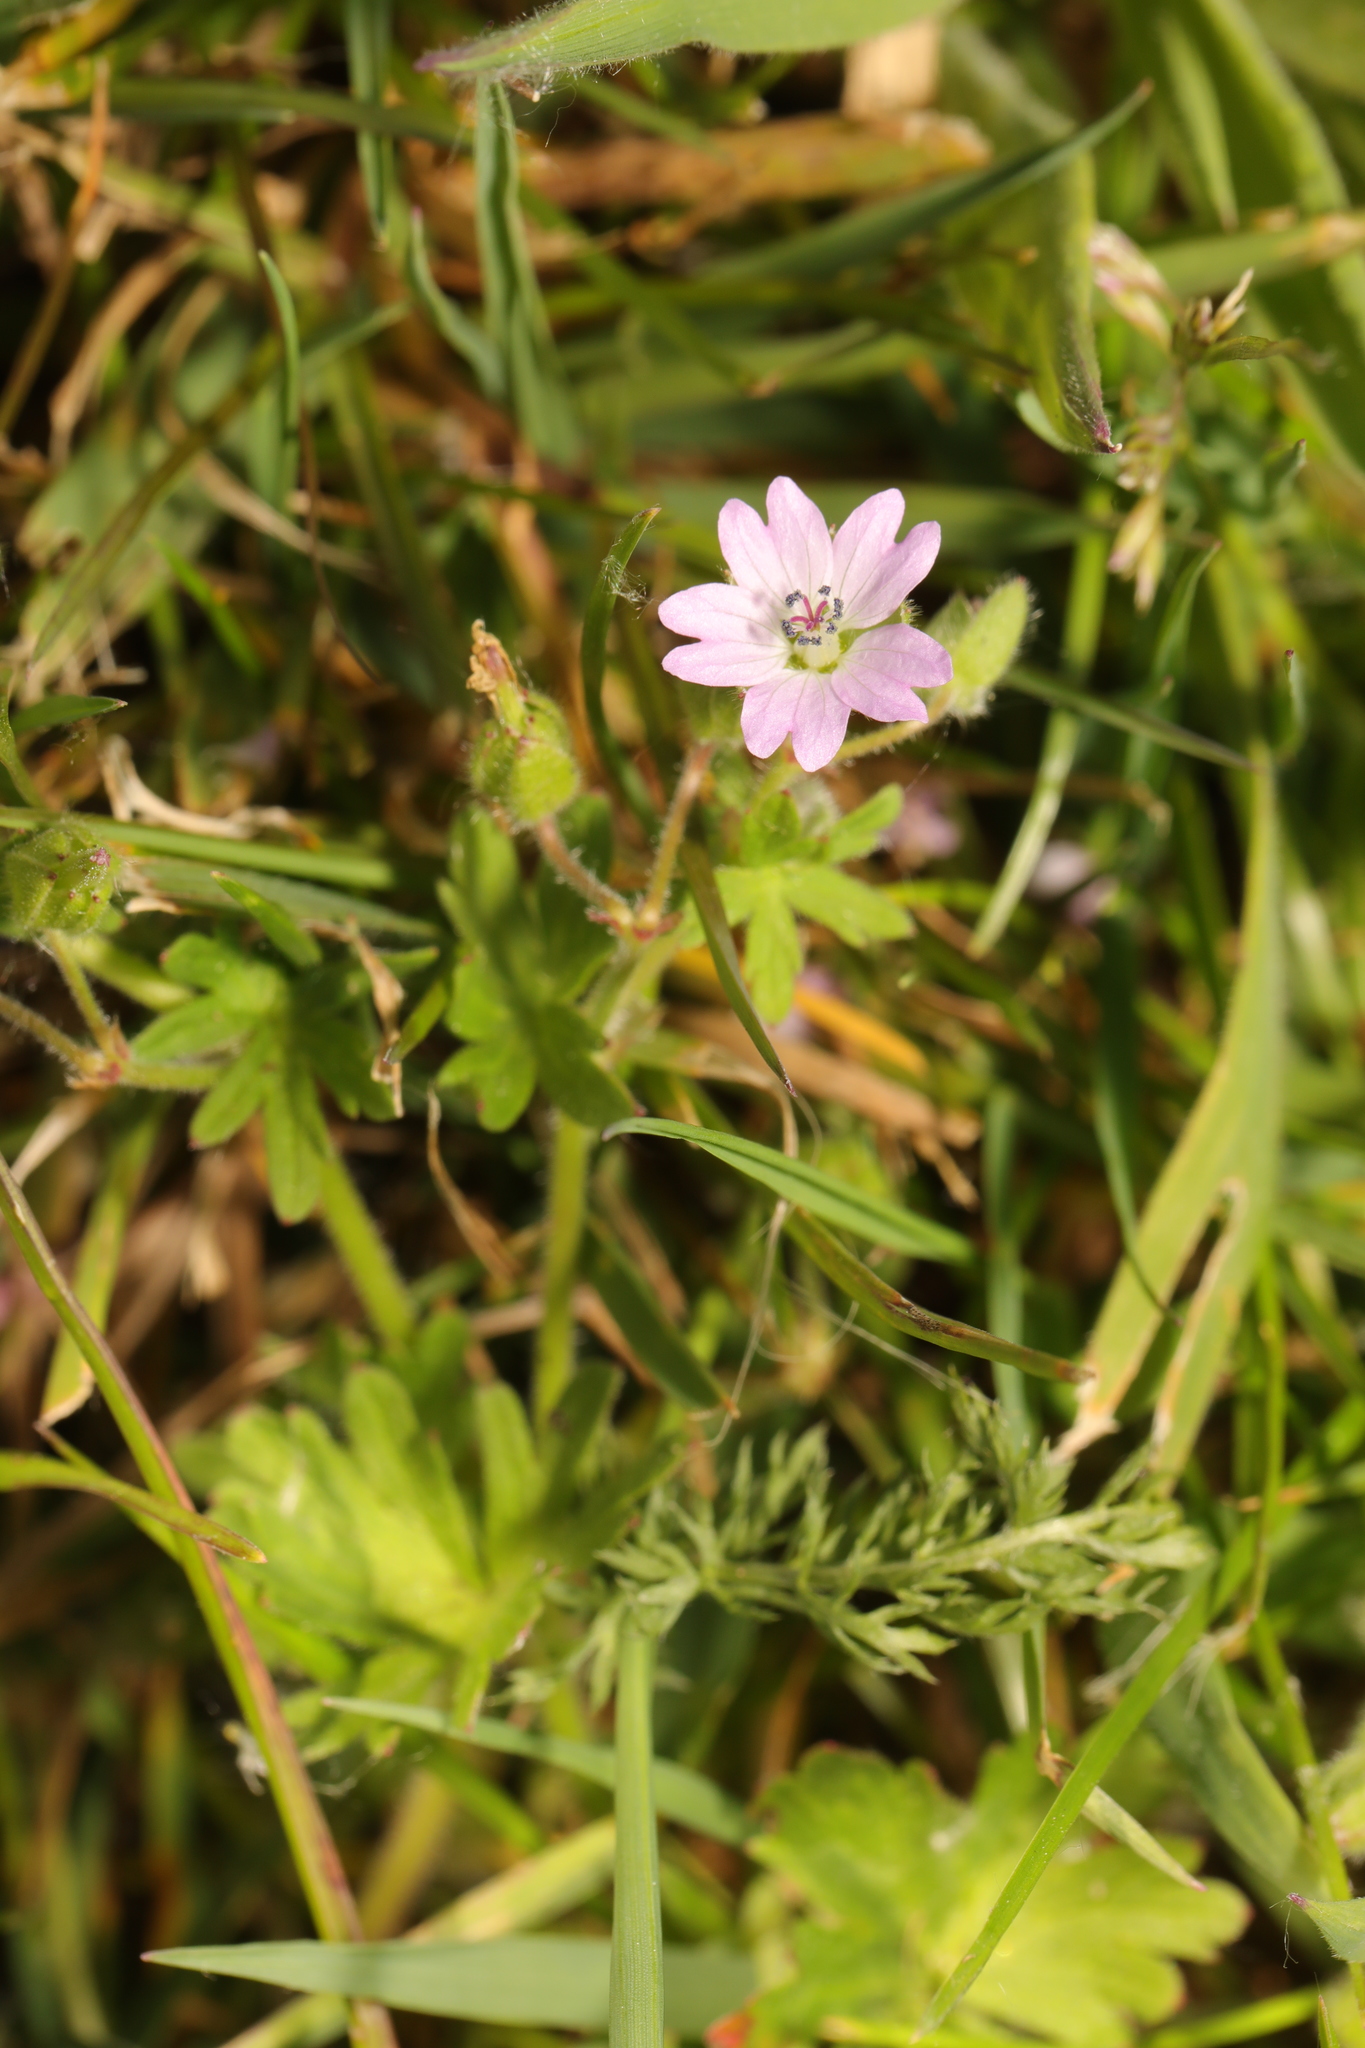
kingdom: Plantae
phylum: Tracheophyta
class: Magnoliopsida
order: Geraniales
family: Geraniaceae
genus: Geranium
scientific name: Geranium molle
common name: Dove's-foot crane's-bill
